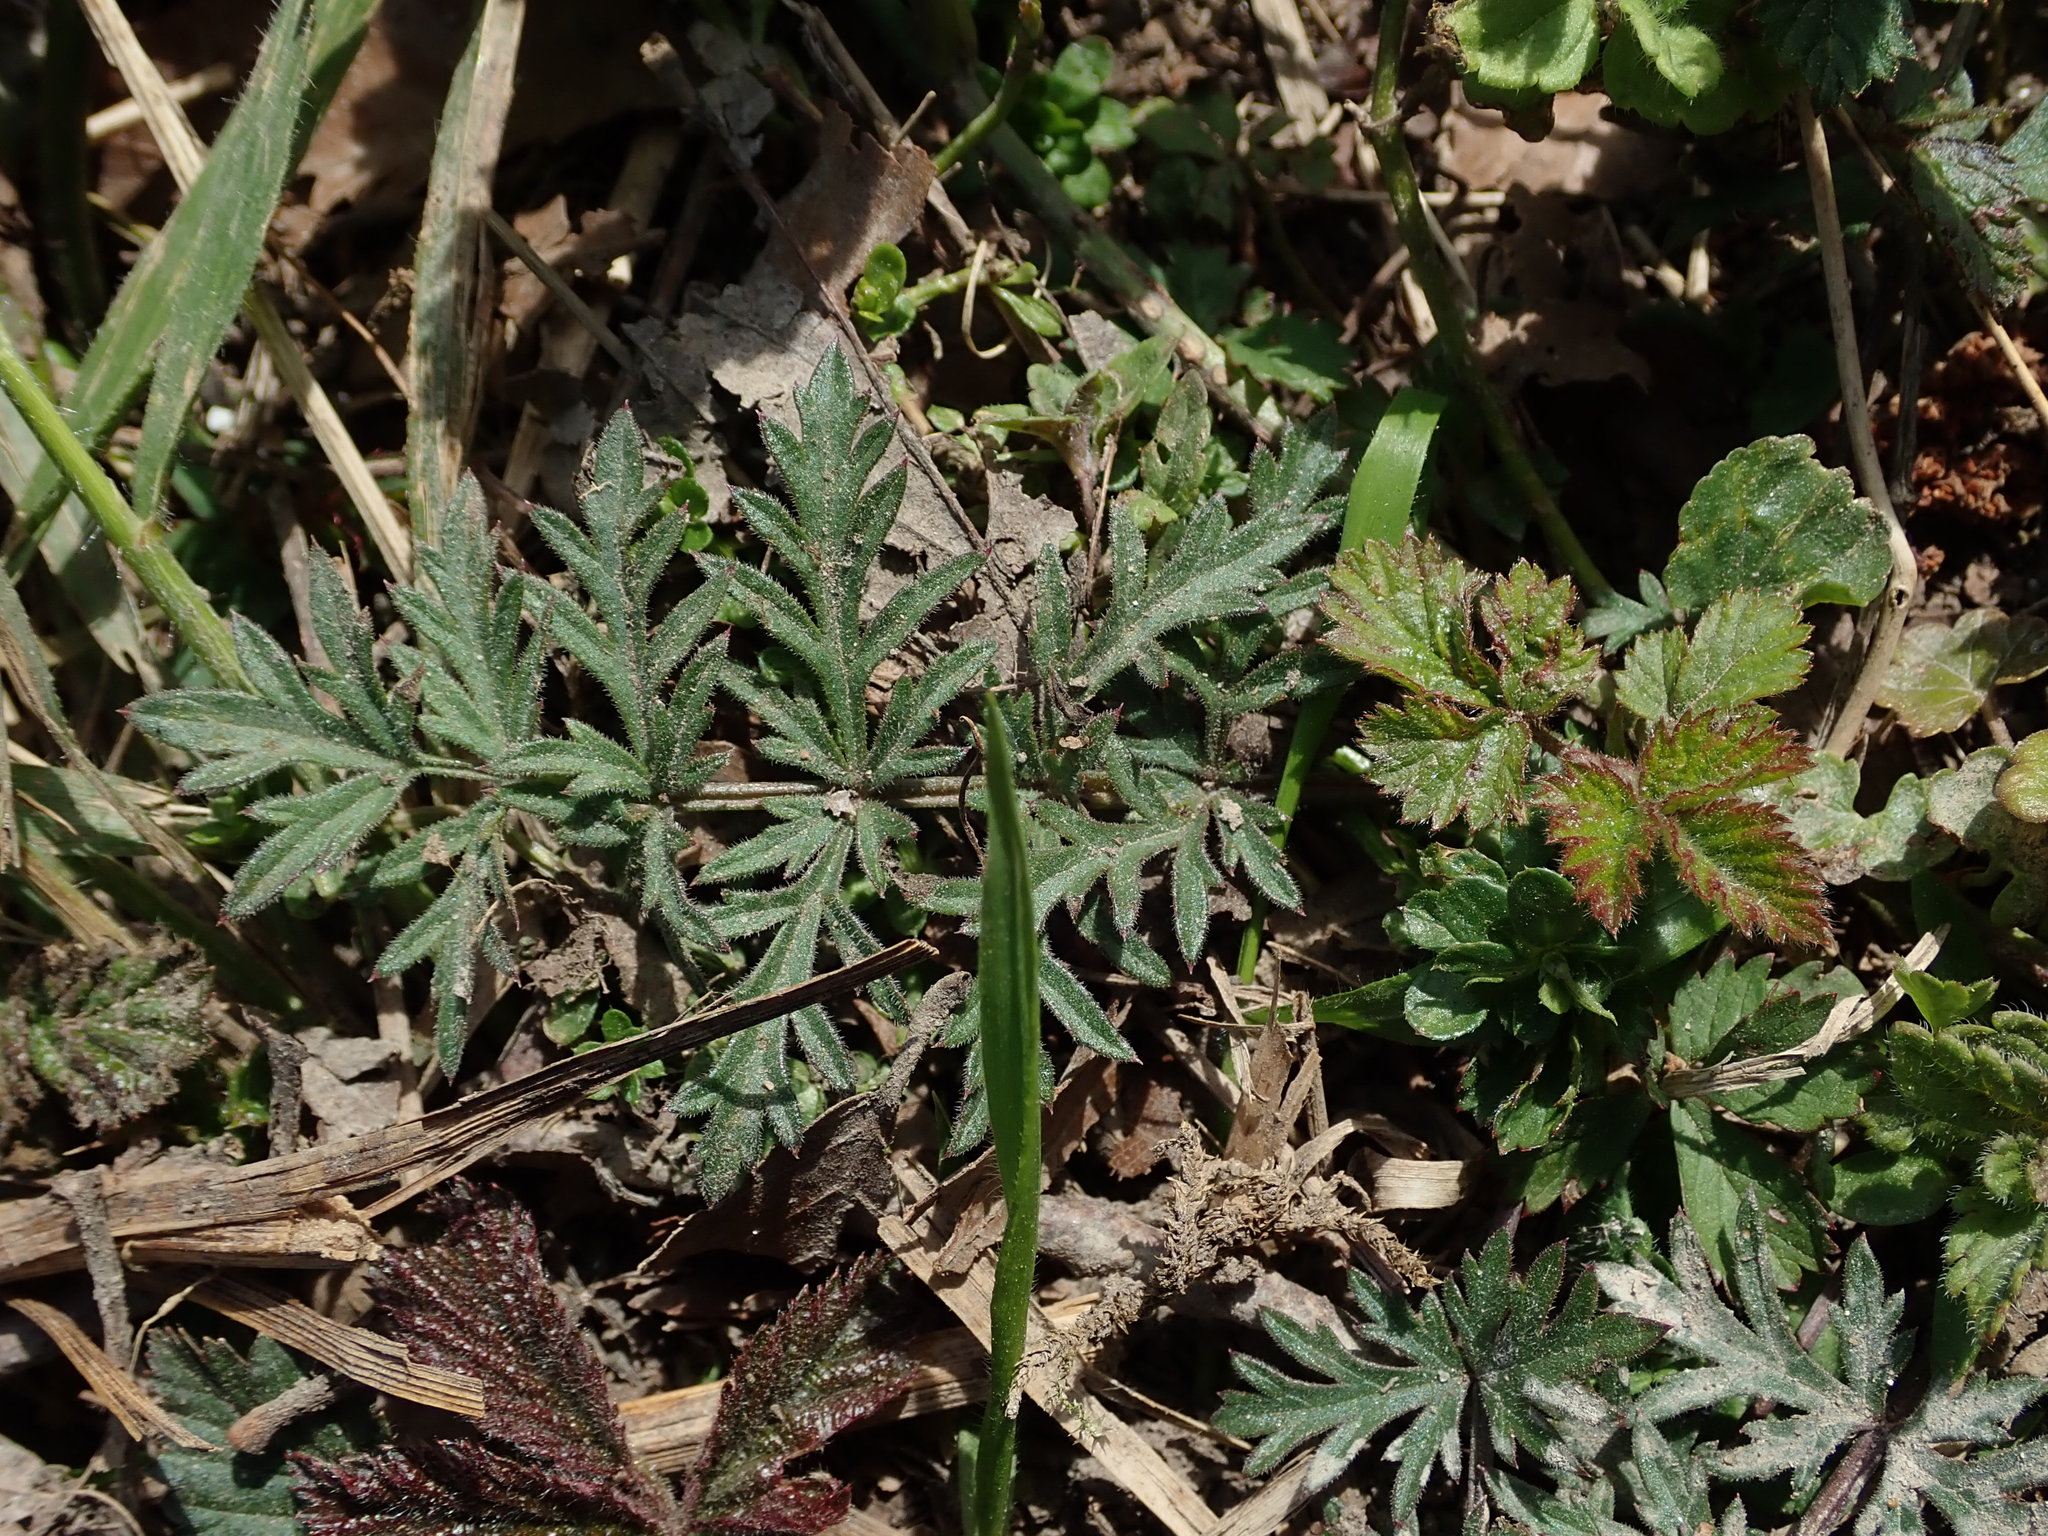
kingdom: Plantae
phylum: Tracheophyta
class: Magnoliopsida
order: Apiales
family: Apiaceae
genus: Pimpinella
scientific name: Pimpinella saxifraga
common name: Burnet-saxifrage
